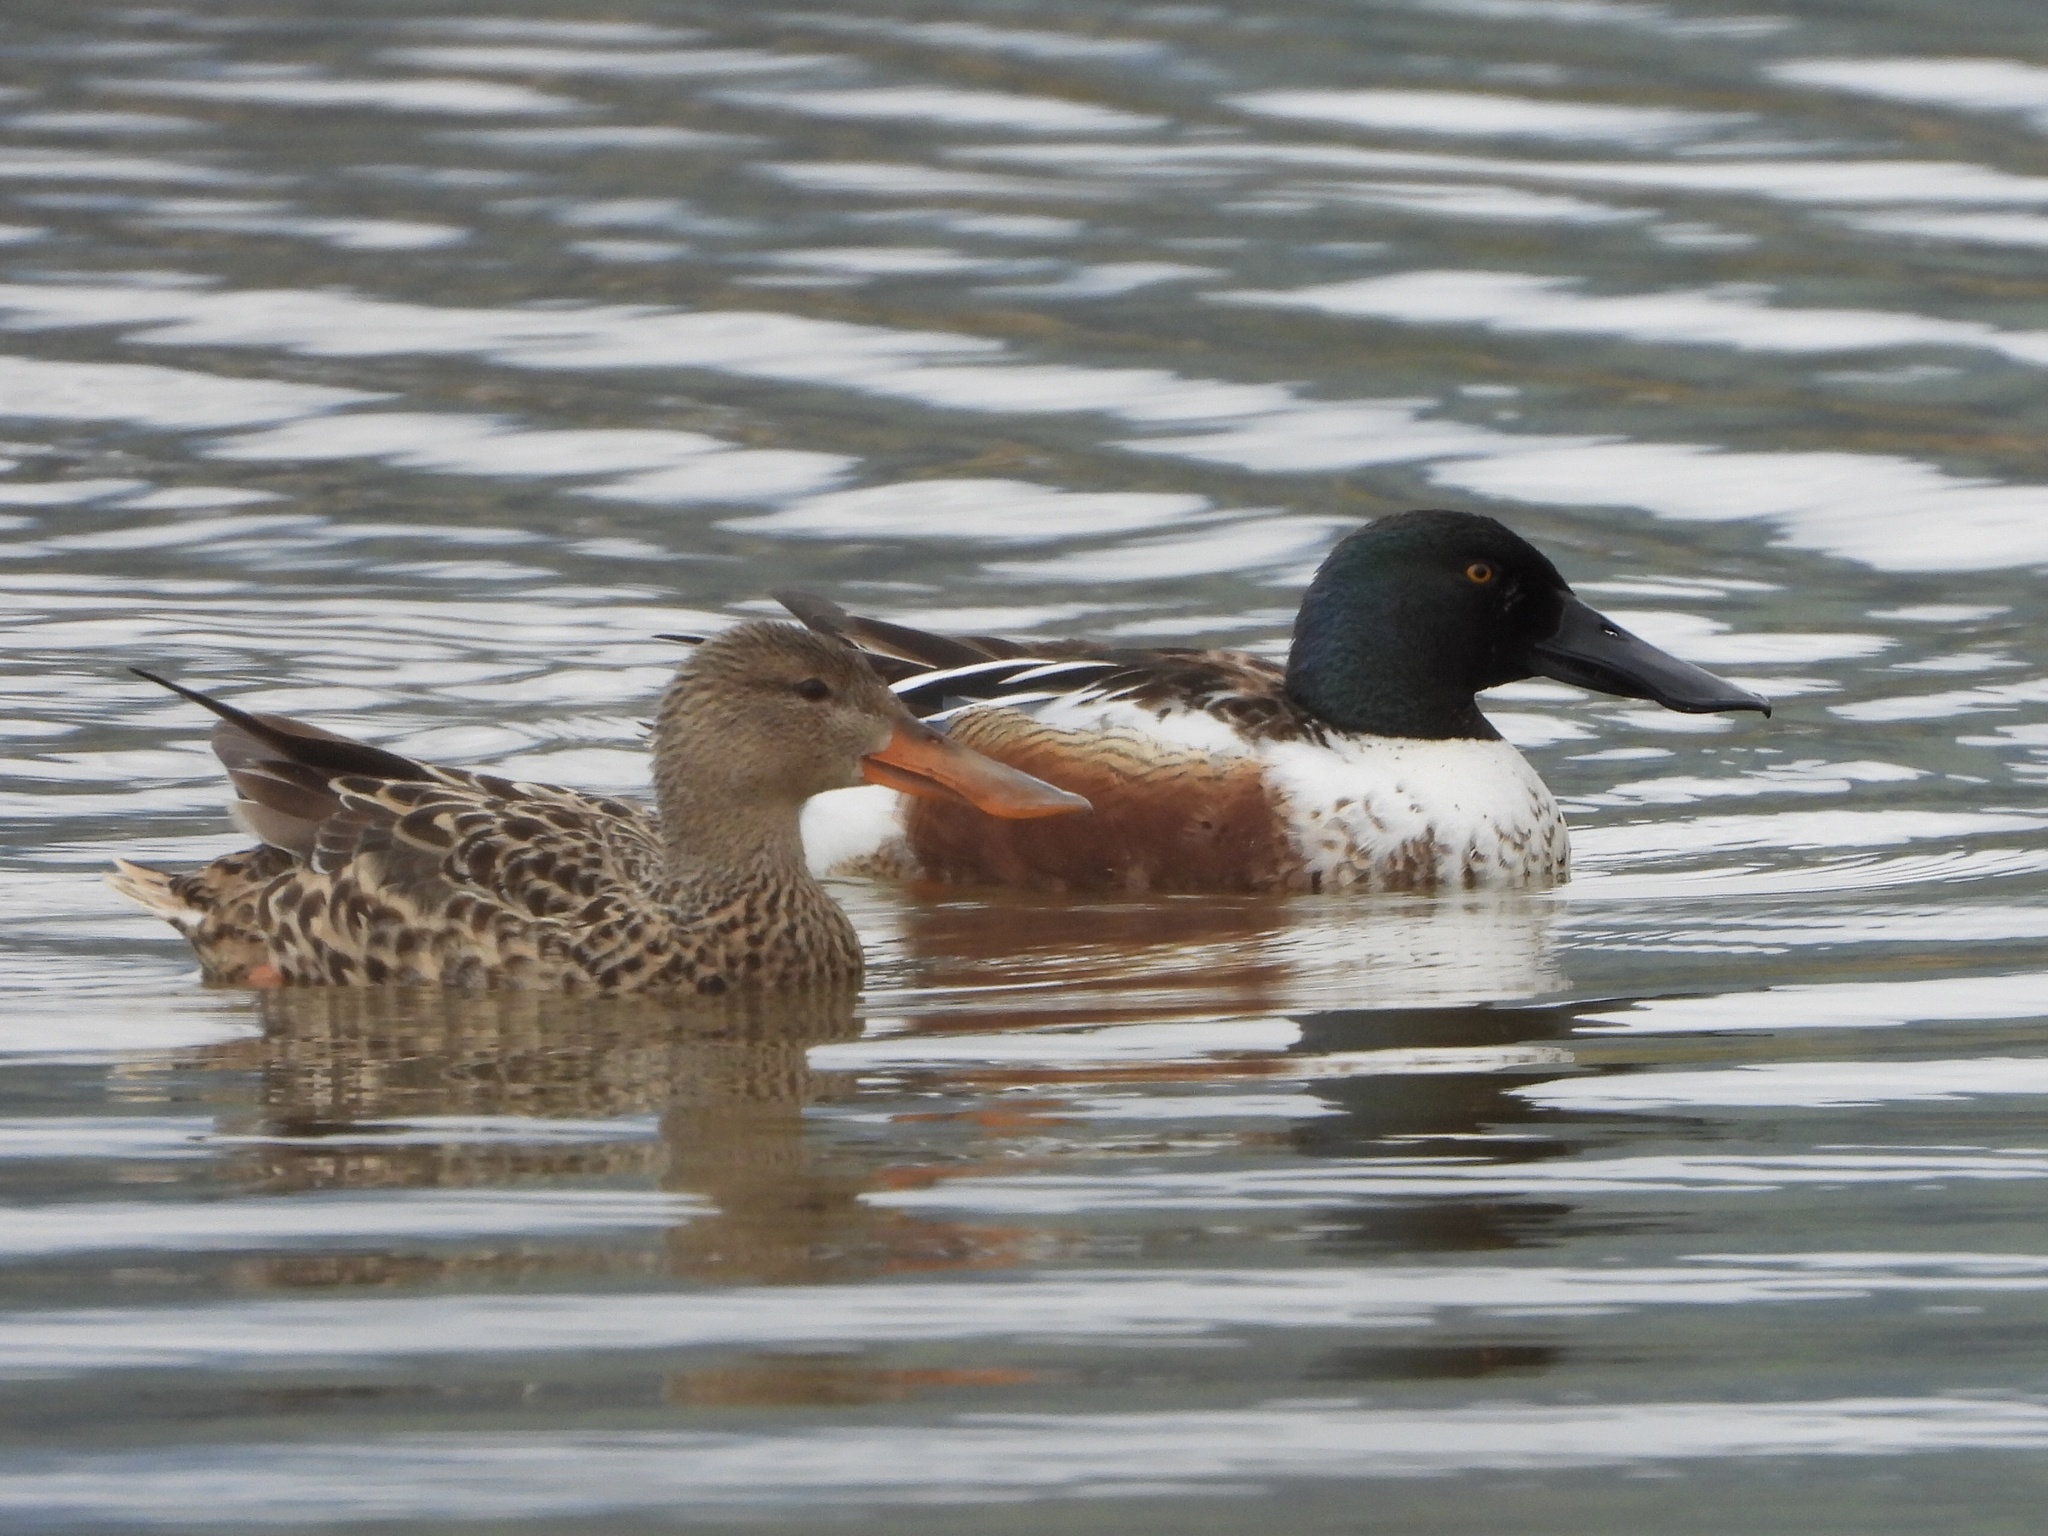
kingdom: Animalia
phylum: Chordata
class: Aves
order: Anseriformes
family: Anatidae
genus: Spatula
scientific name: Spatula clypeata
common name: Northern shoveler
